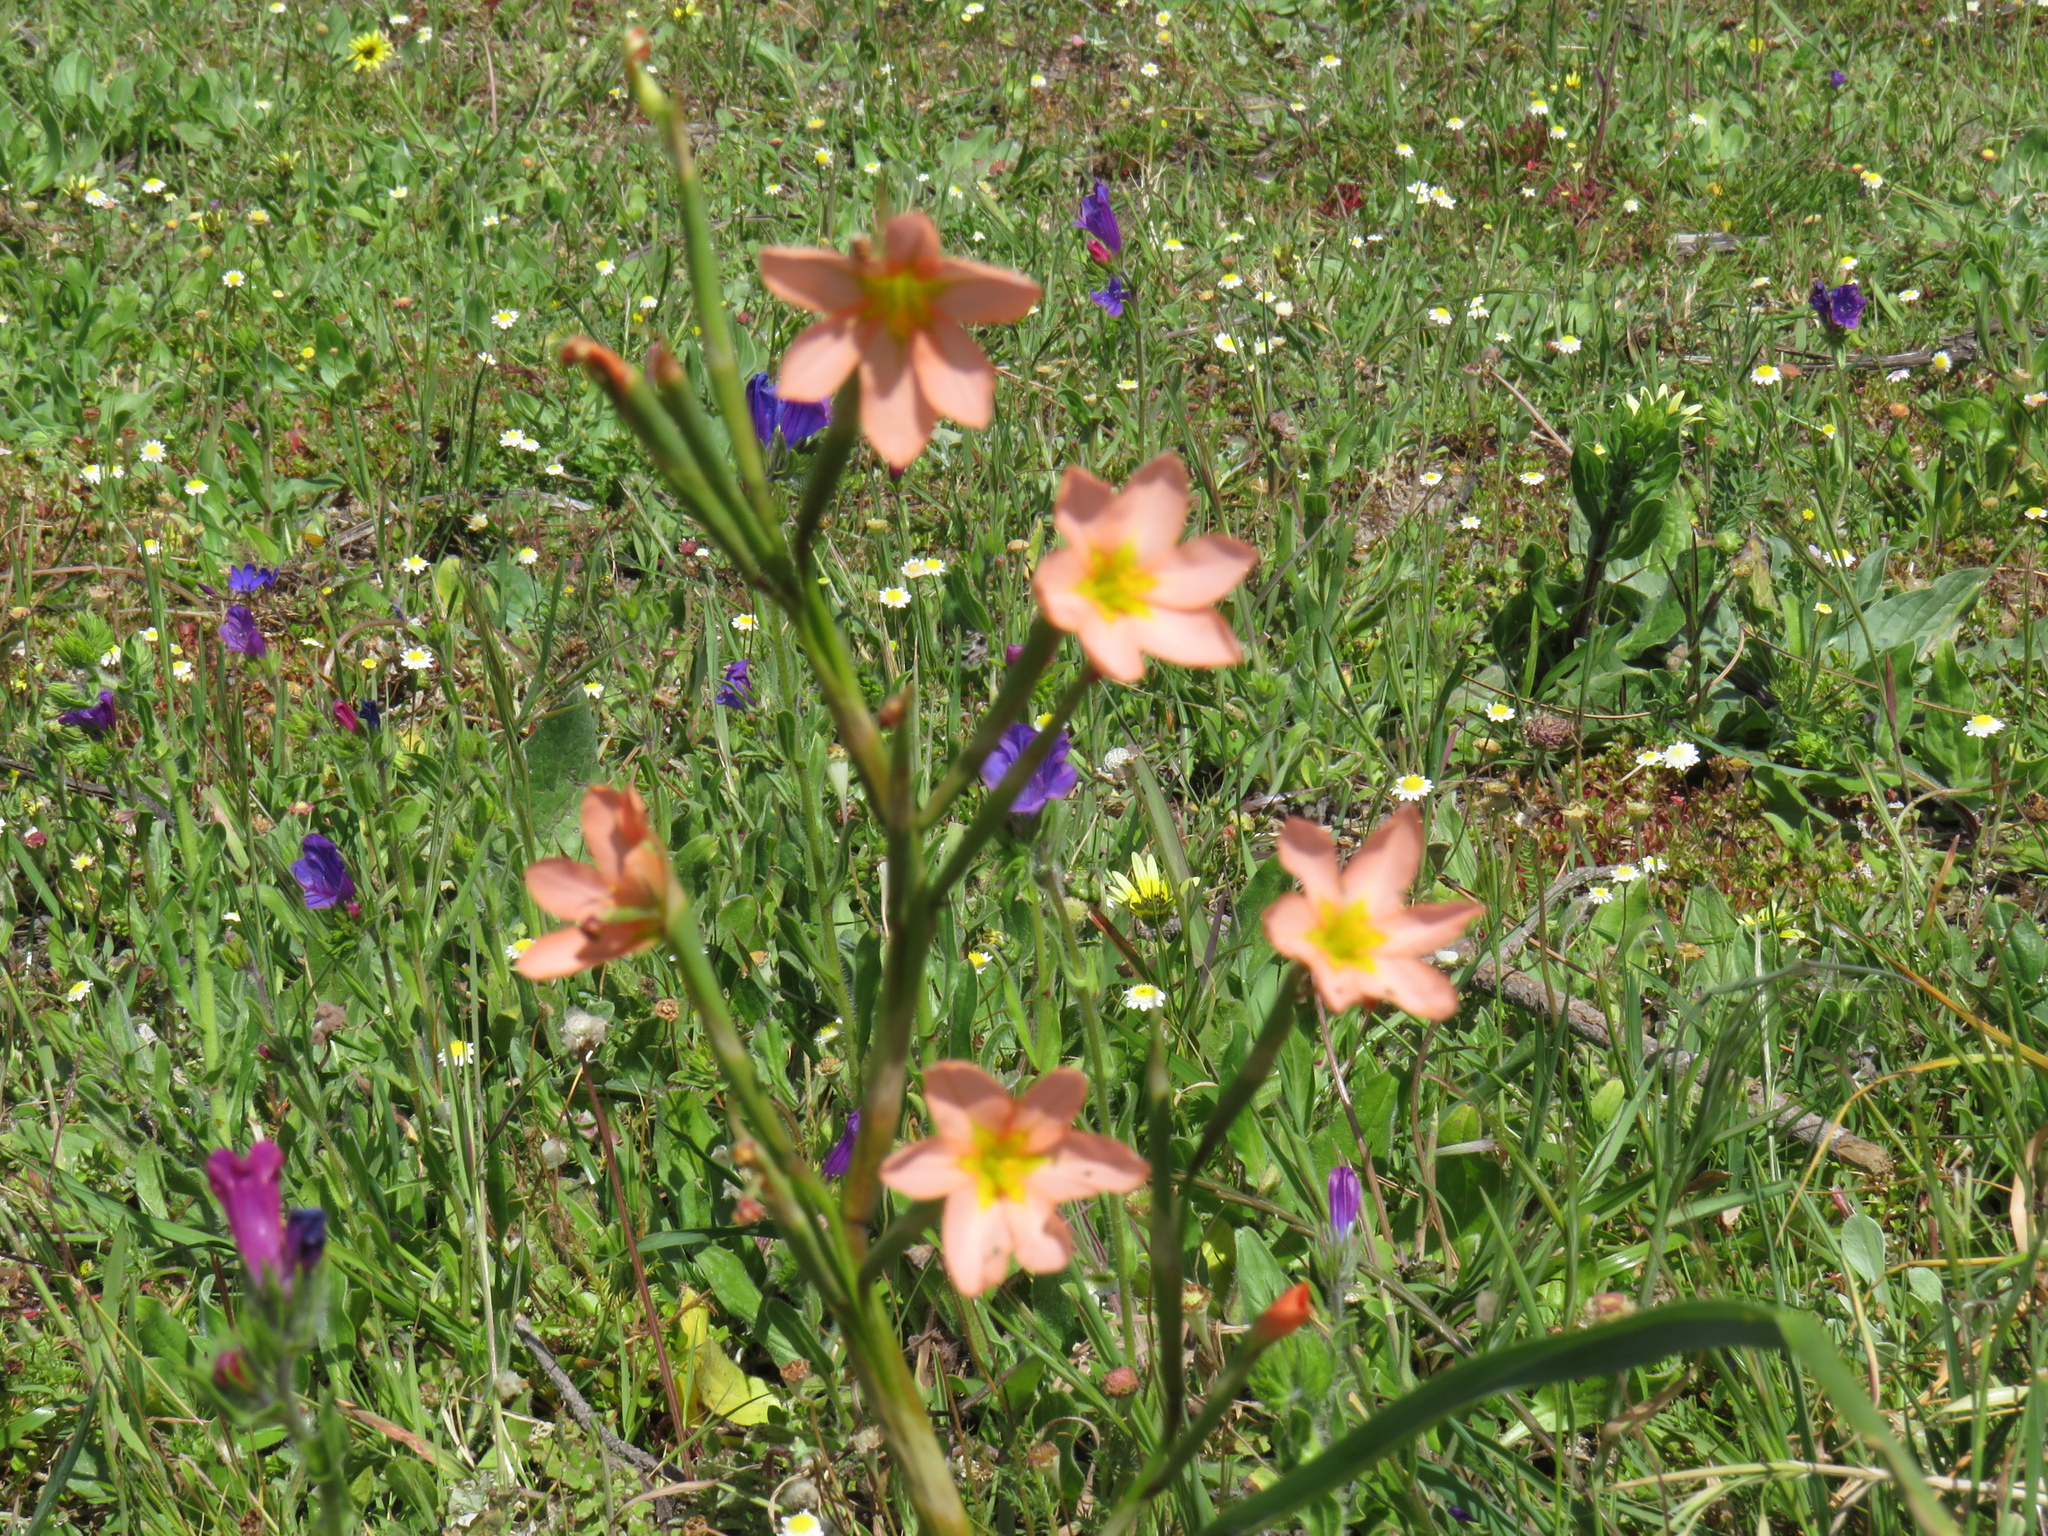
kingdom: Plantae
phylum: Tracheophyta
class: Liliopsida
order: Asparagales
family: Iridaceae
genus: Moraea
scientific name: Moraea miniata
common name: Two-leaf cape-tulip
